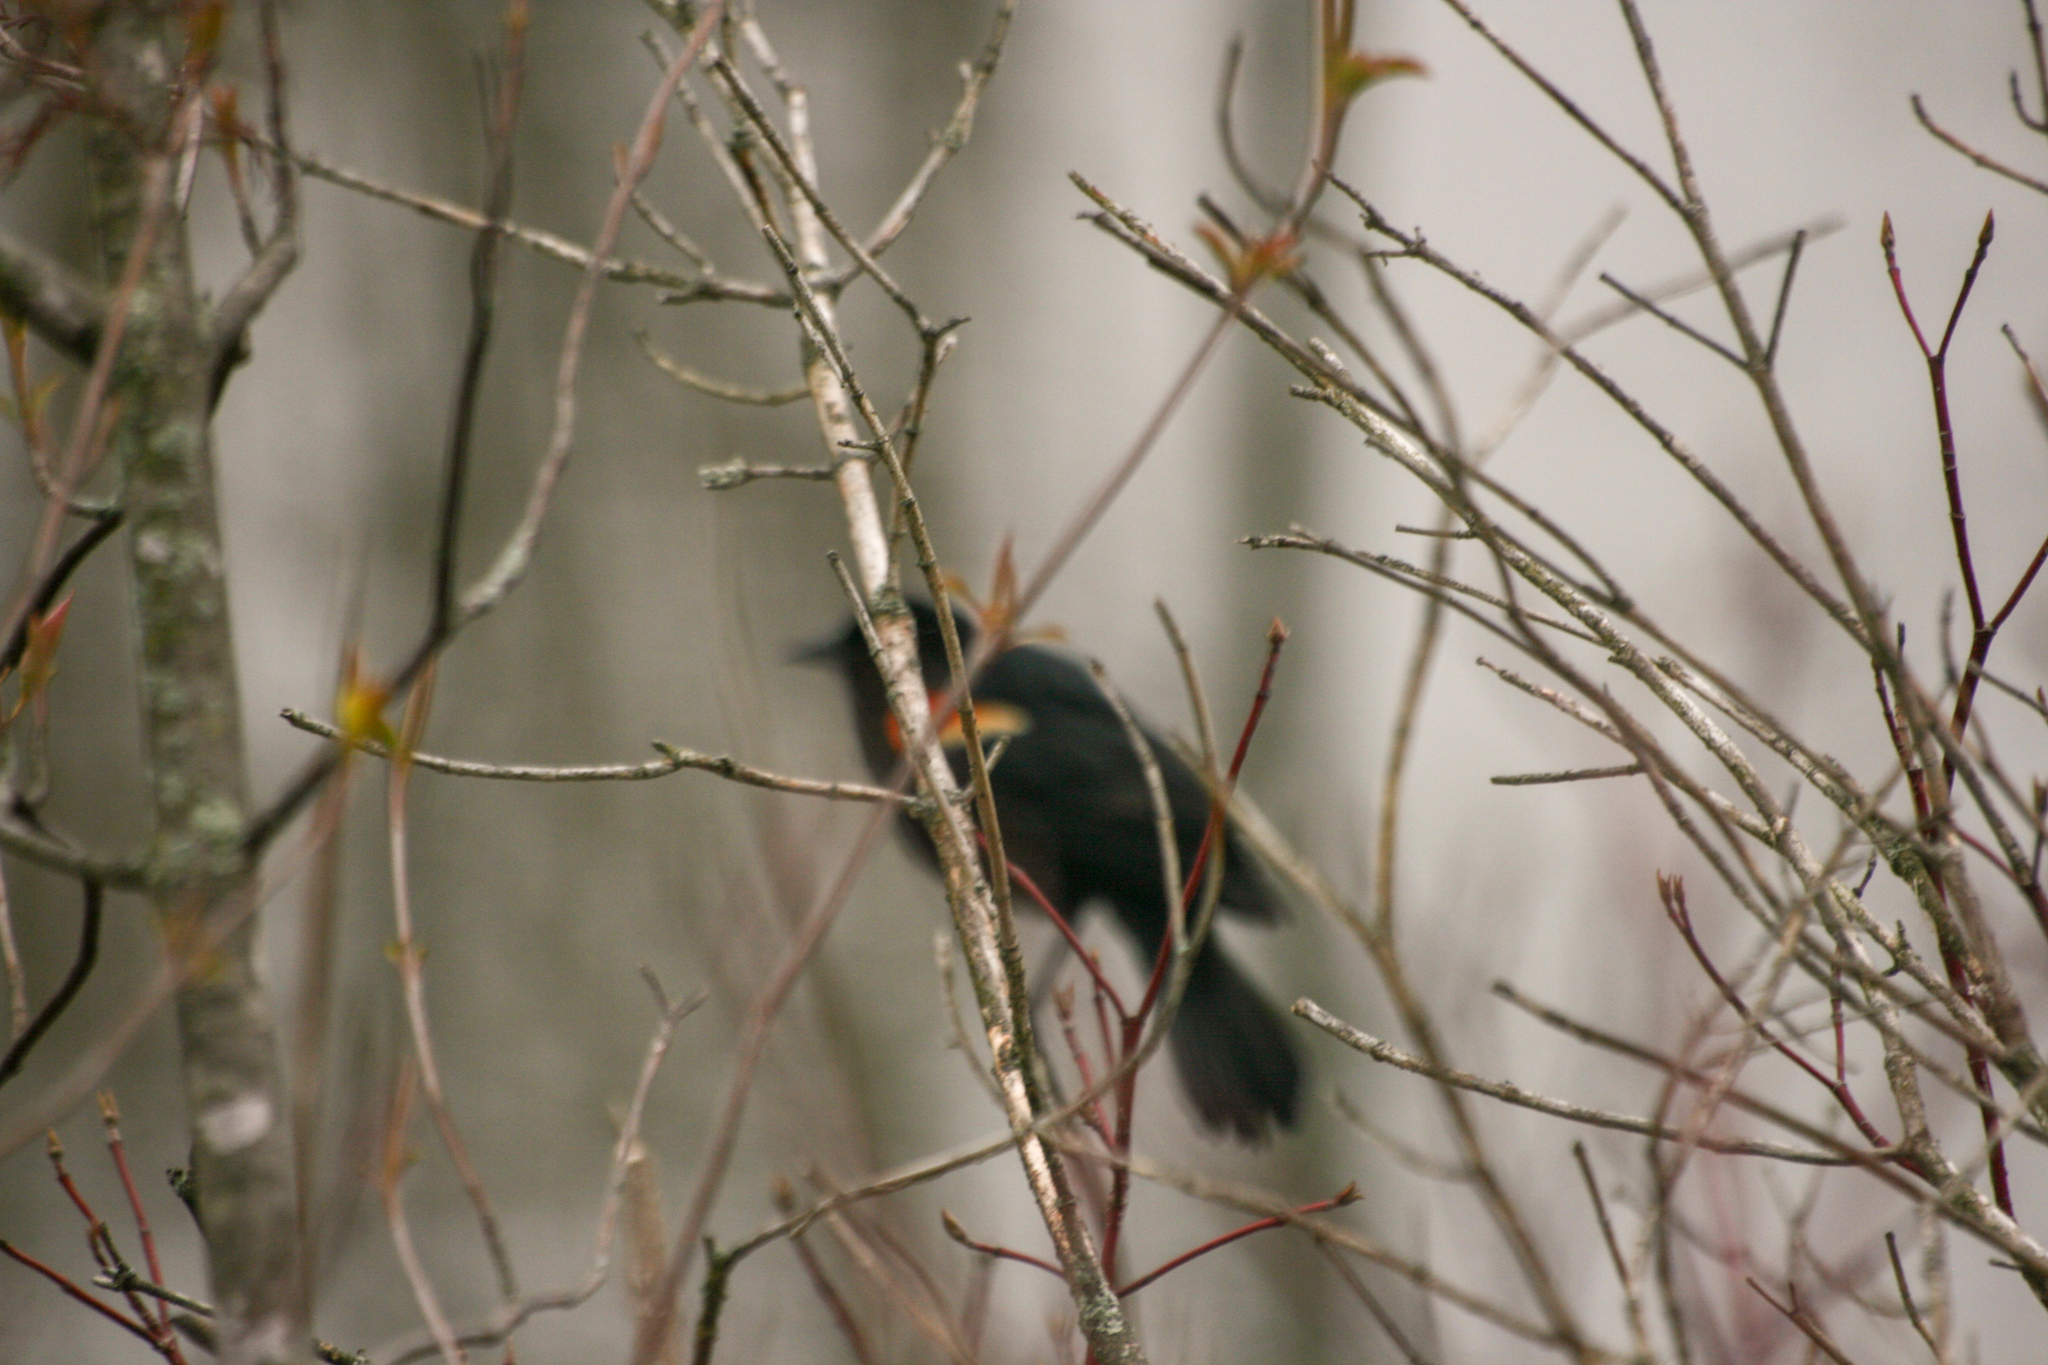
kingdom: Animalia
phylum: Chordata
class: Aves
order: Passeriformes
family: Icteridae
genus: Agelaius
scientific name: Agelaius phoeniceus
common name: Red-winged blackbird
